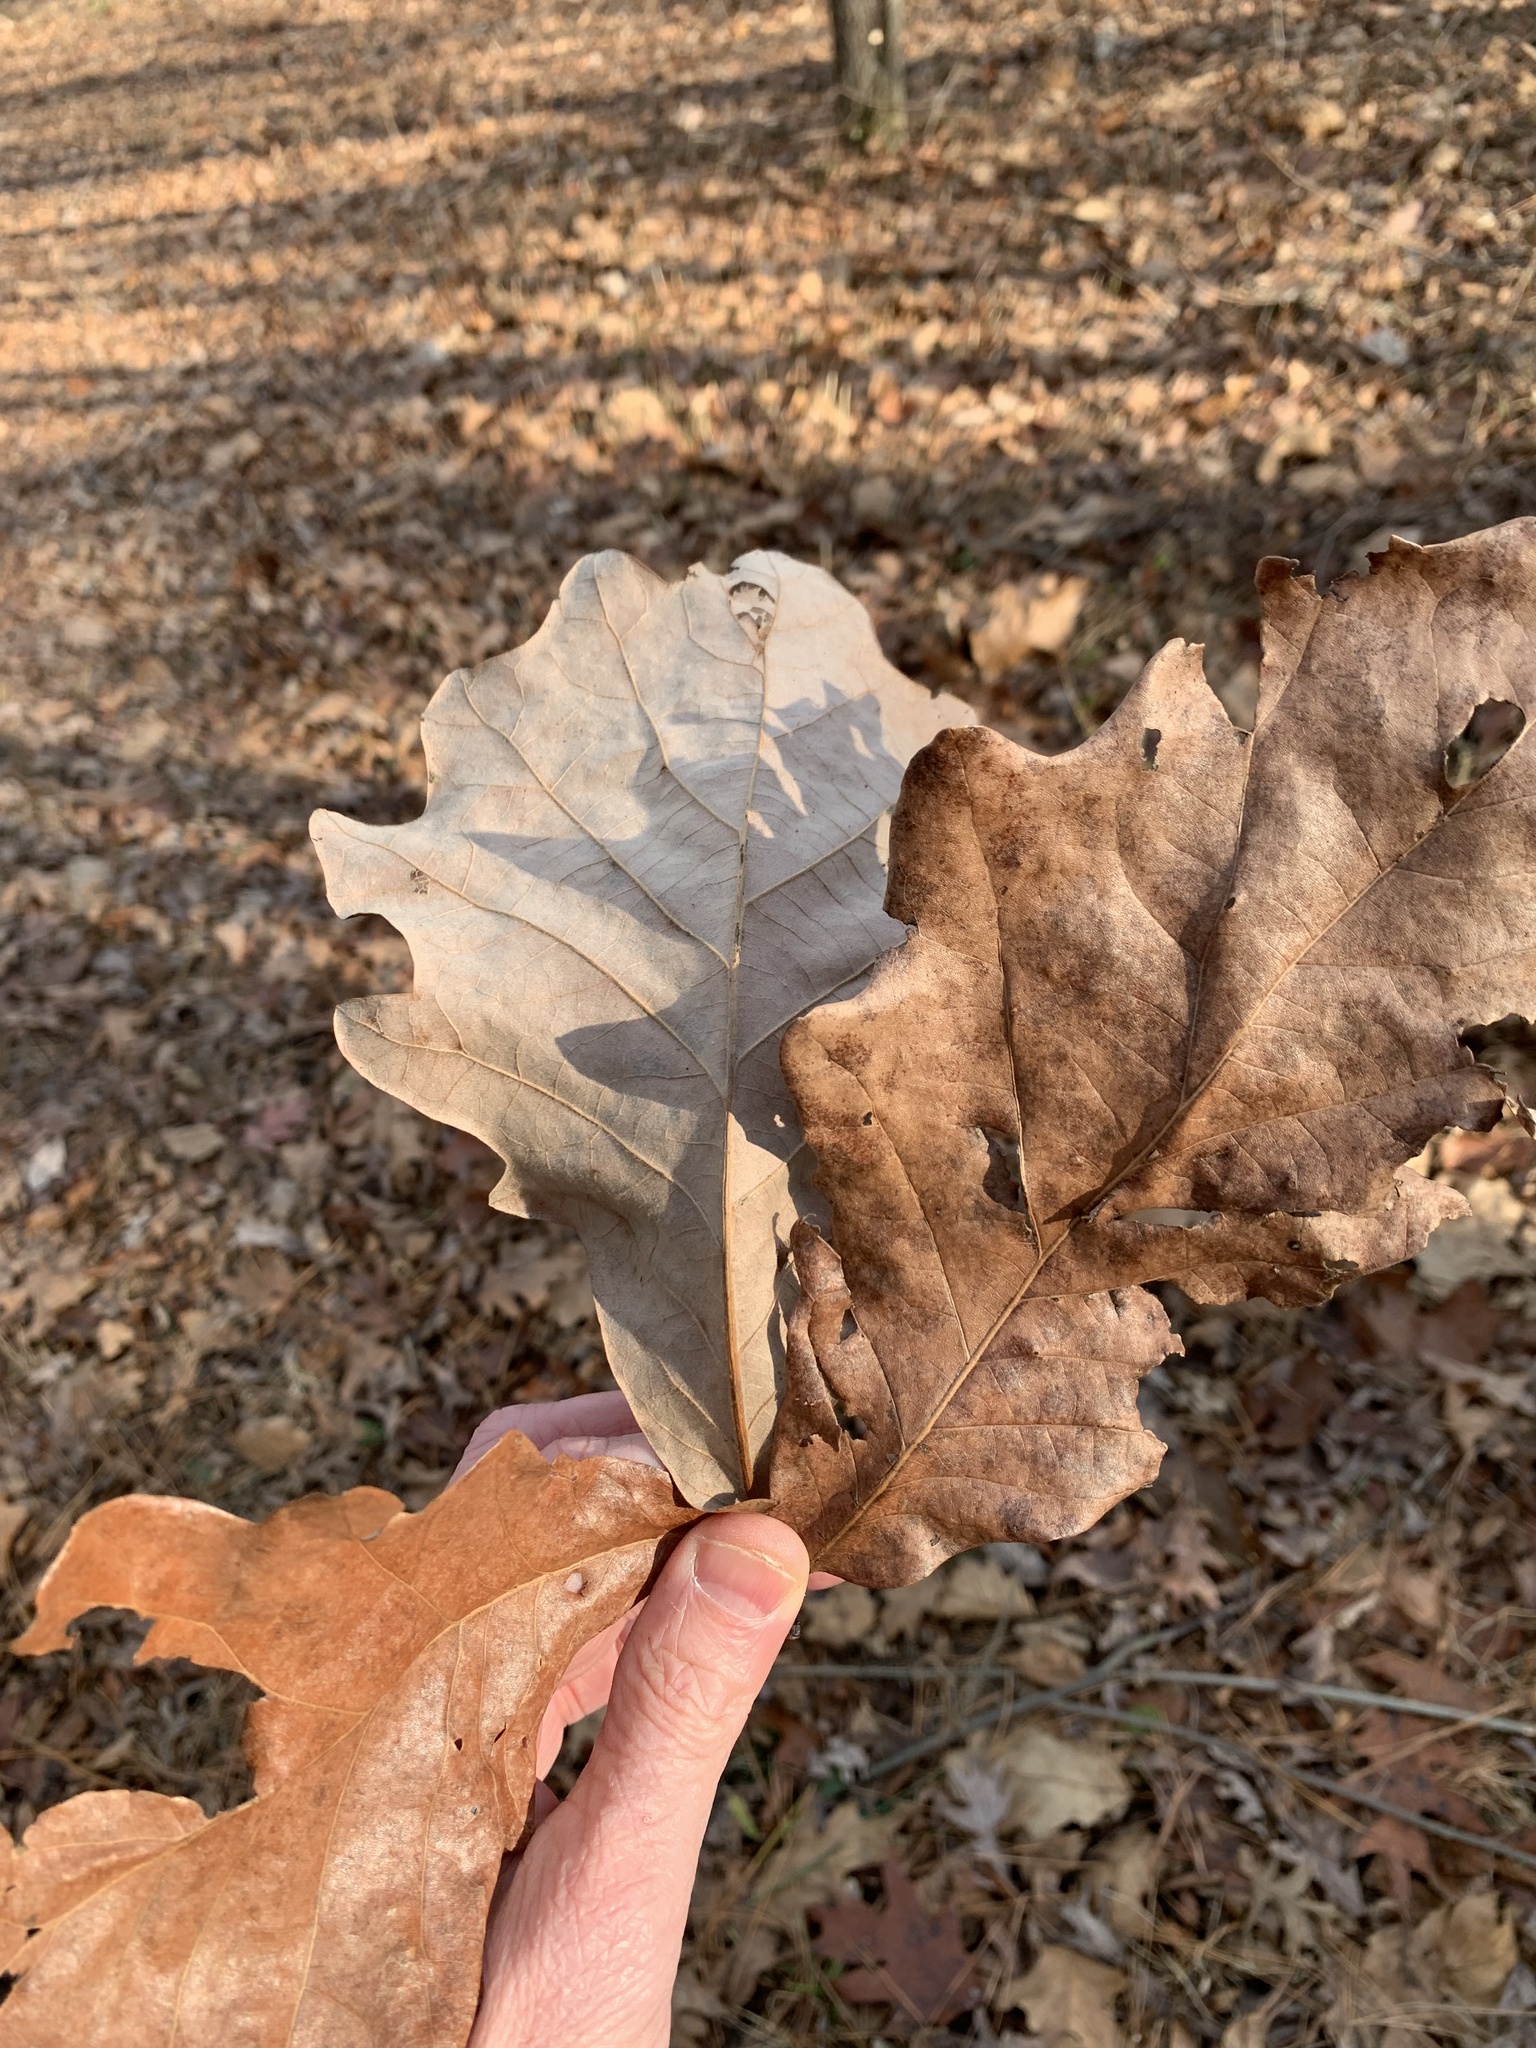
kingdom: Plantae
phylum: Tracheophyta
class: Magnoliopsida
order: Fagales
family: Fagaceae
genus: Quercus
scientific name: Quercus bicolor
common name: Swamp white oak
